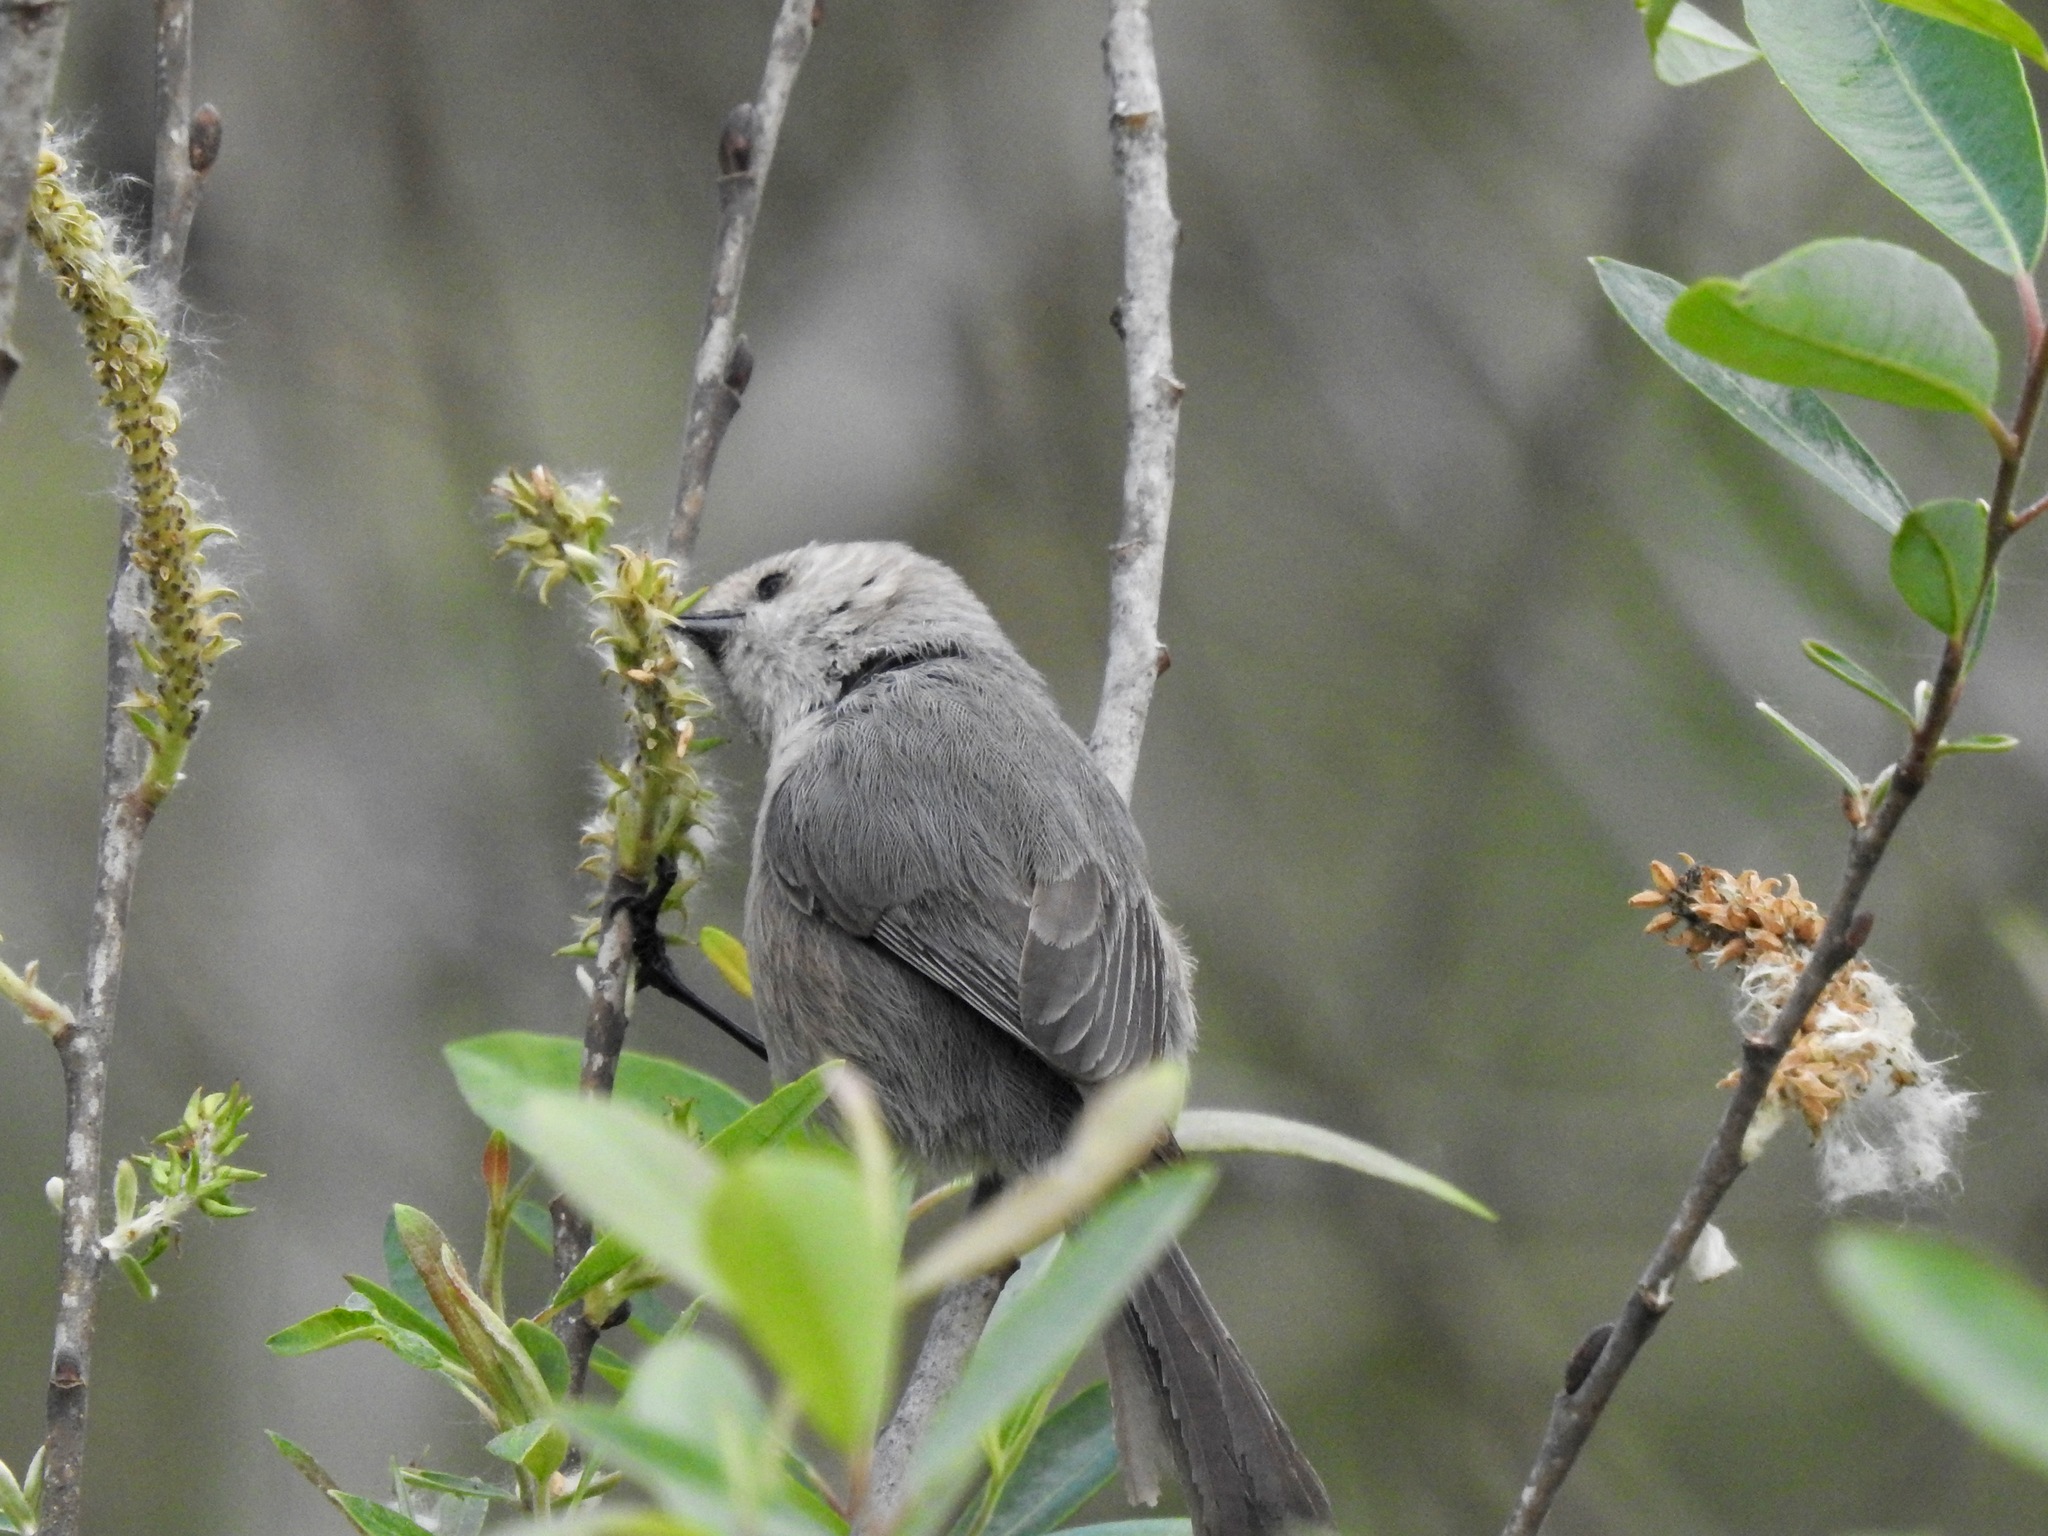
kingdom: Animalia
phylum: Chordata
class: Aves
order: Passeriformes
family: Aegithalidae
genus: Psaltriparus
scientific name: Psaltriparus minimus
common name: American bushtit
